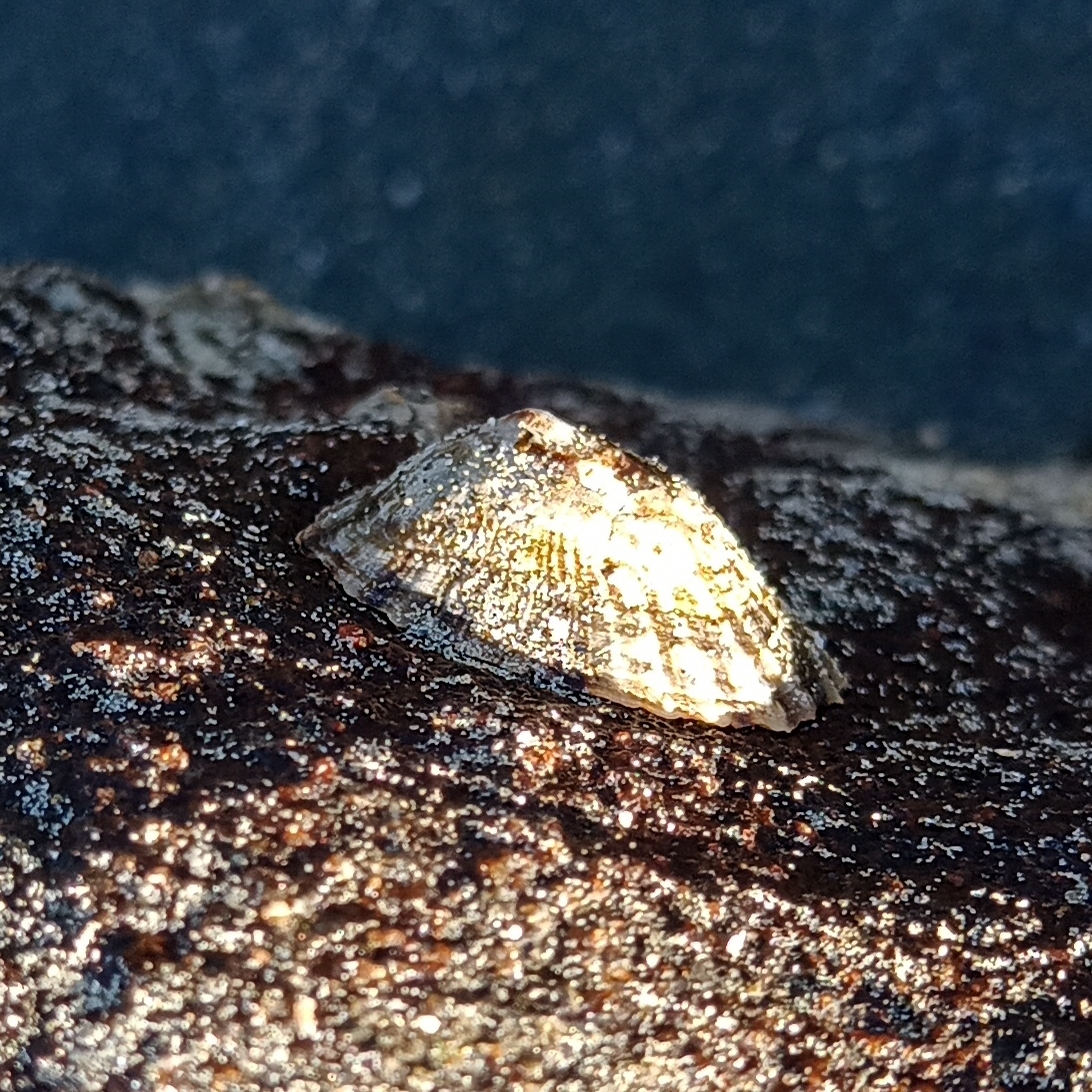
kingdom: Animalia
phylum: Mollusca
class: Gastropoda
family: Lottiidae
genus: Lottia
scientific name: Lottia subrugosa
